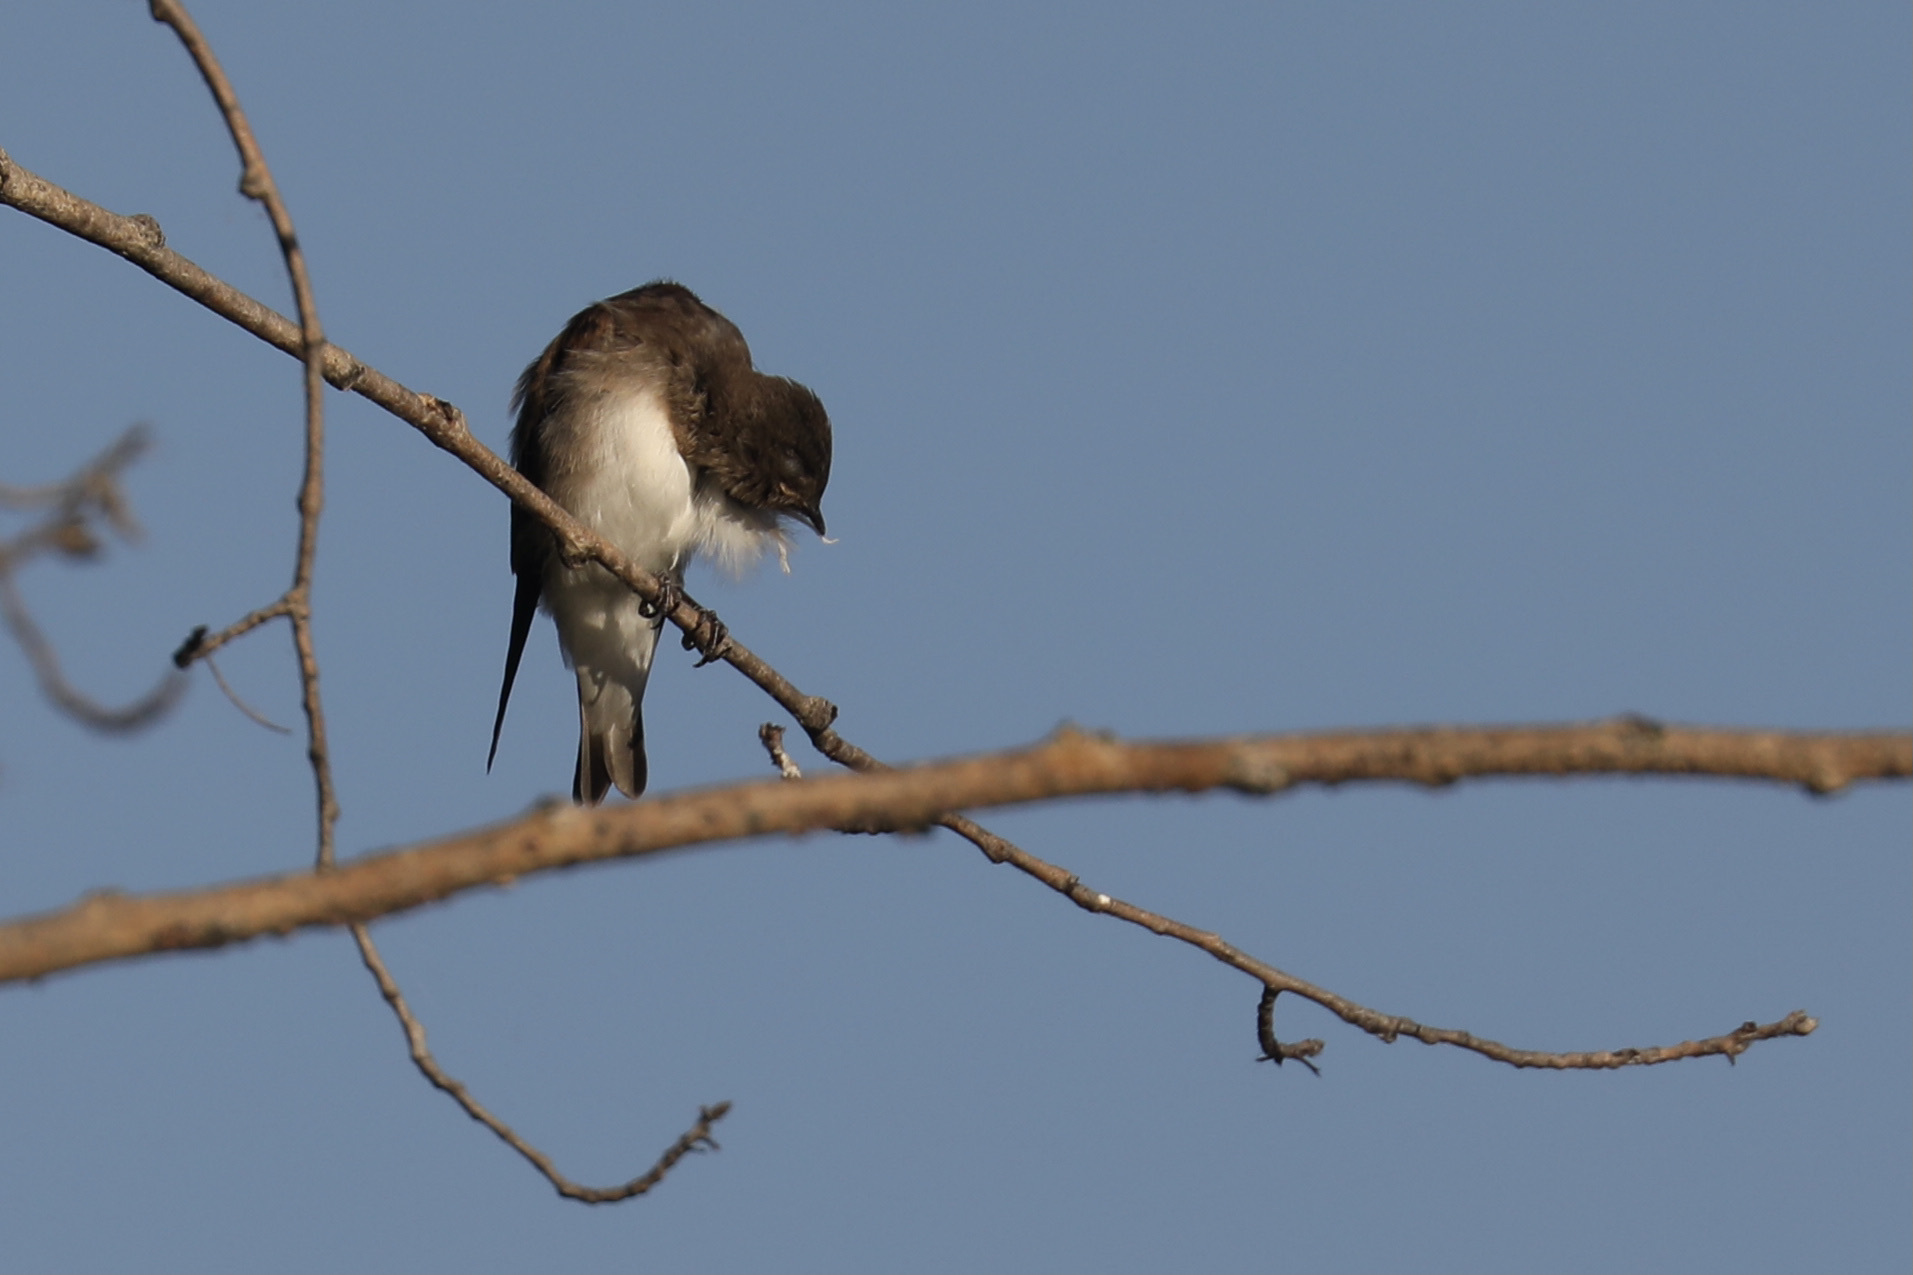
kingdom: Animalia
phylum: Chordata
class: Aves
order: Passeriformes
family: Hirundinidae
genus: Stelgidopteryx
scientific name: Stelgidopteryx serripennis
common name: Northern rough-winged swallow
